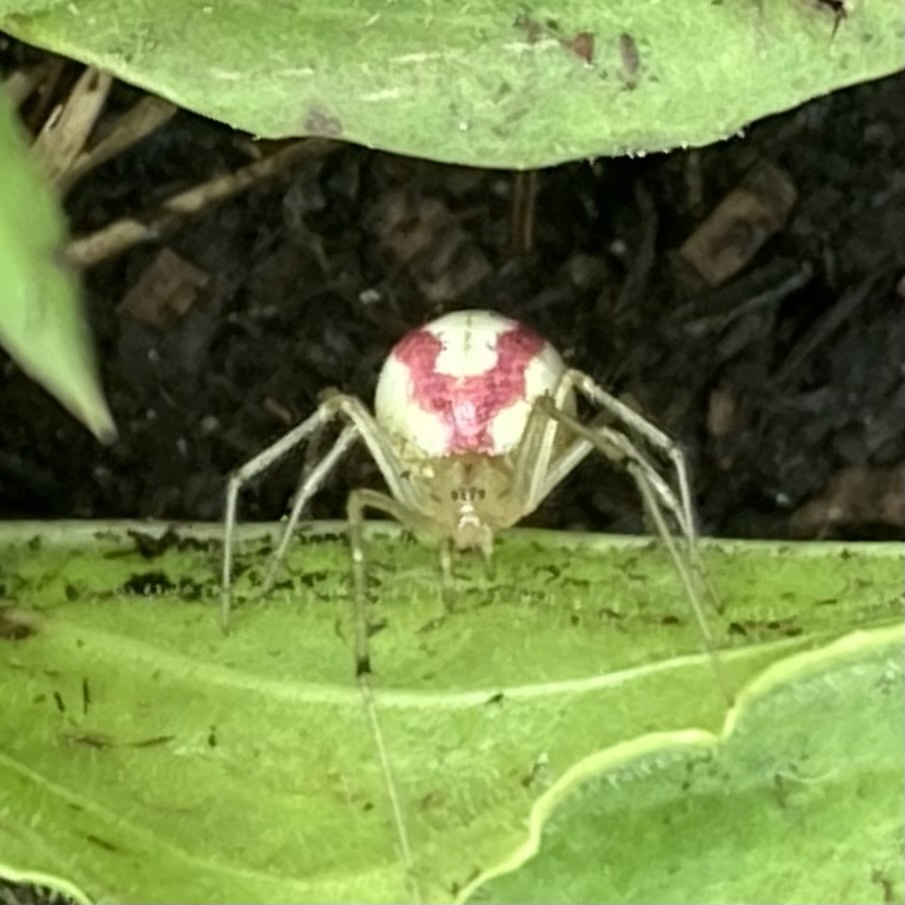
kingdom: Animalia
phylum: Arthropoda
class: Arachnida
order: Araneae
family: Theridiidae
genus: Enoplognatha
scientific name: Enoplognatha ovata
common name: Common candy-striped spider
